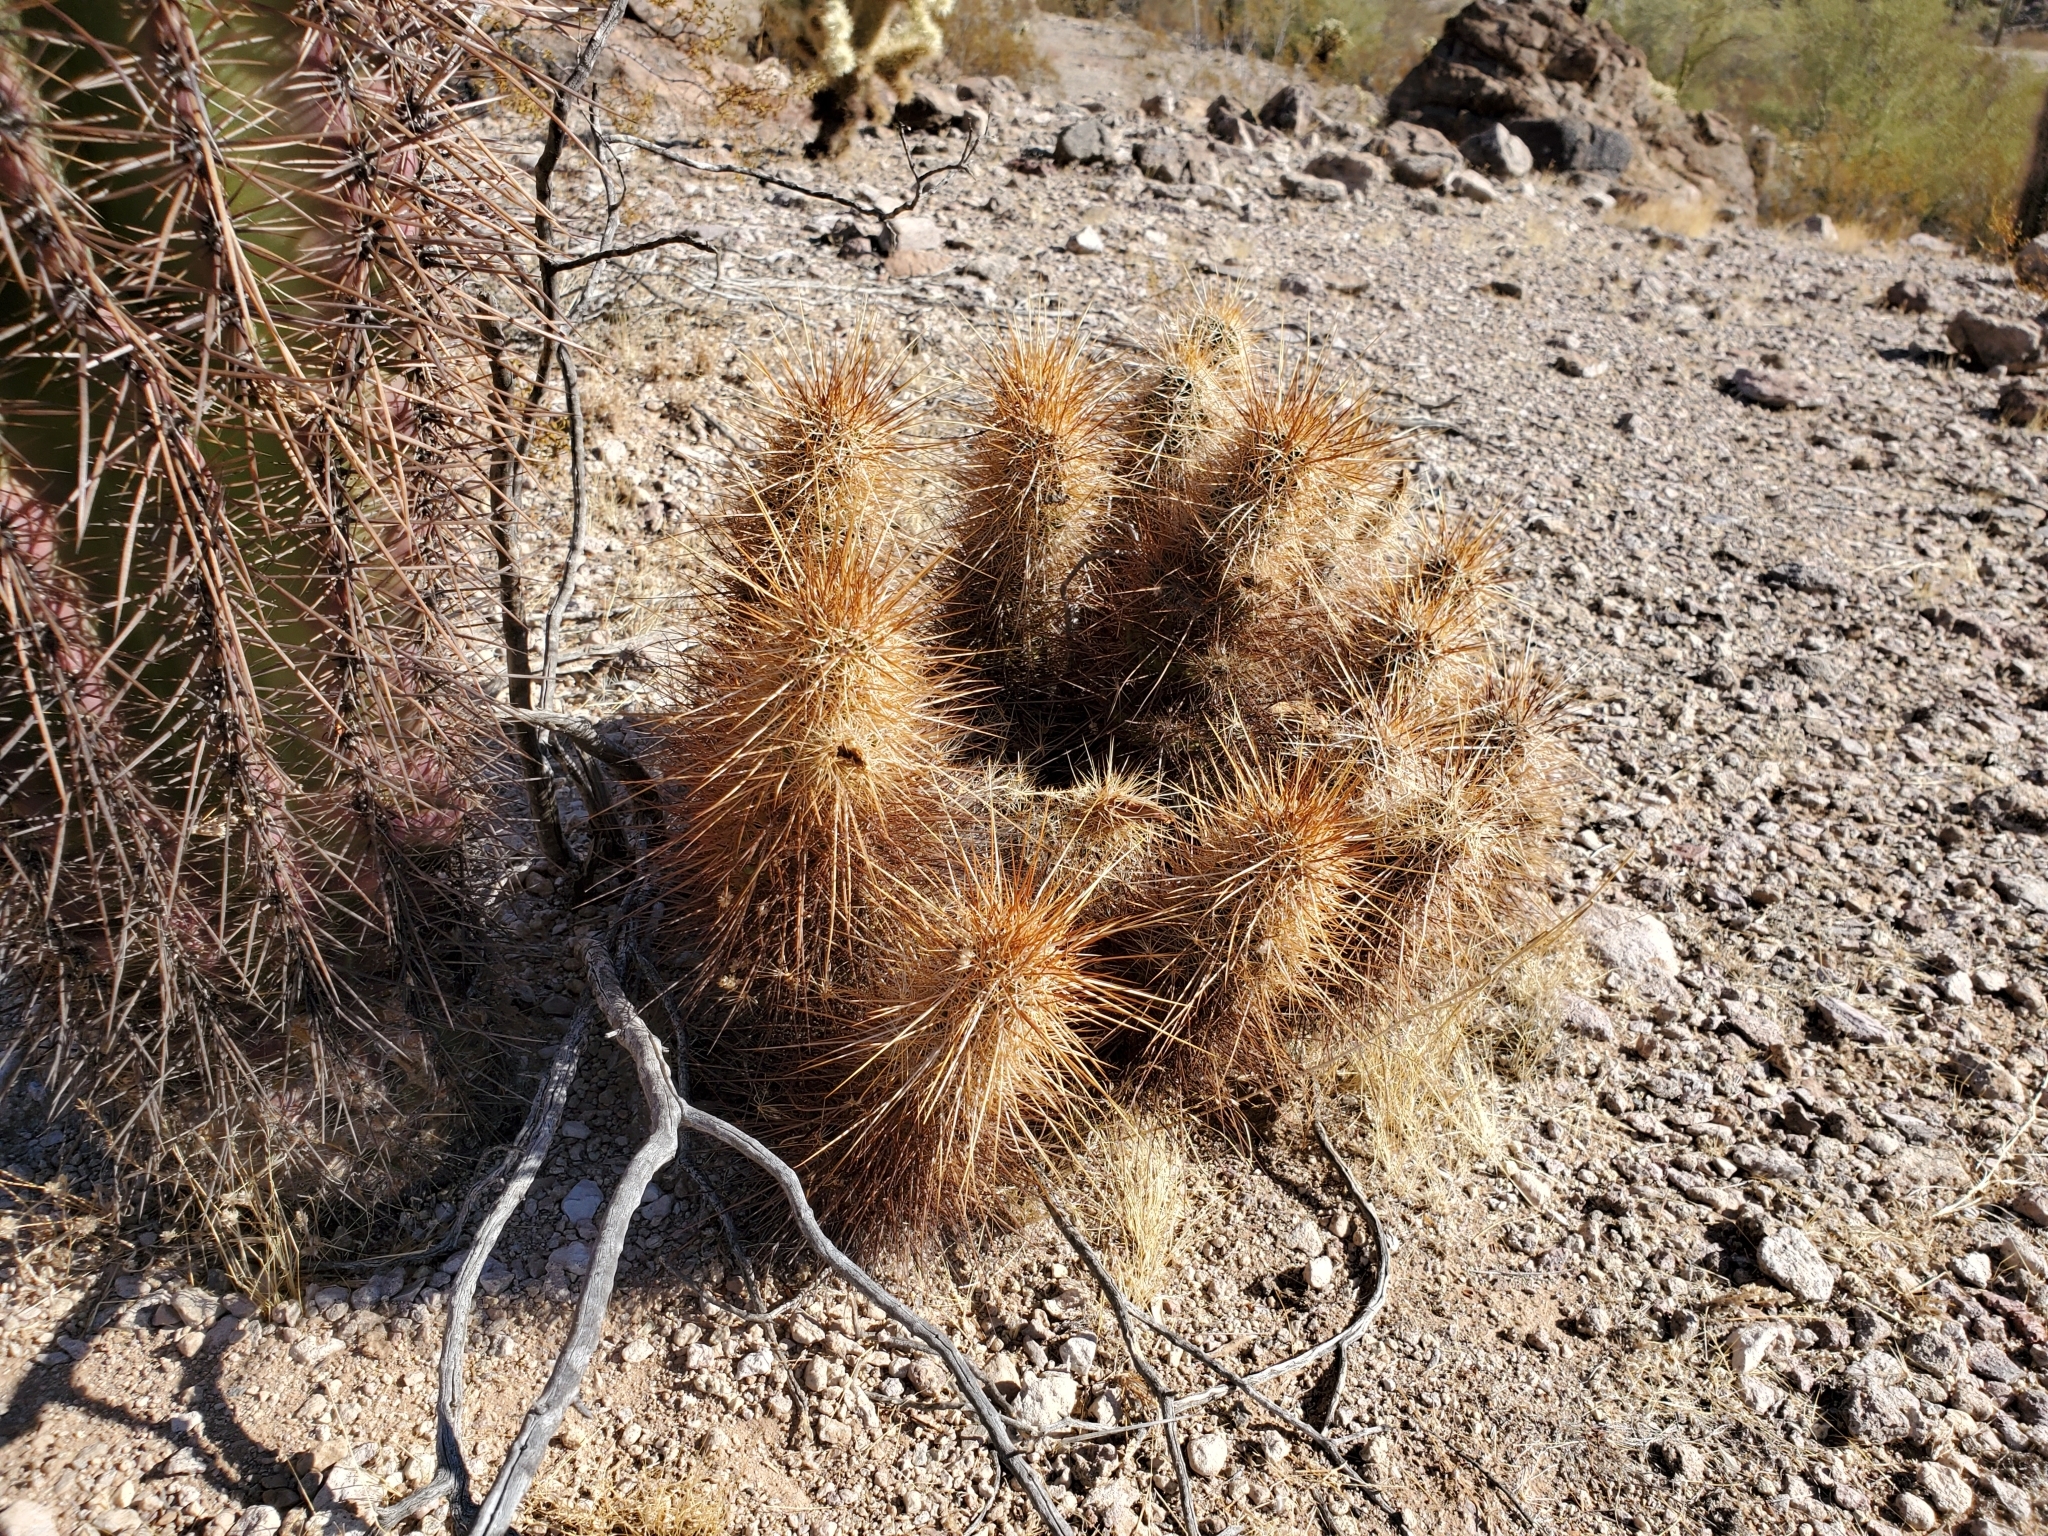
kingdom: Plantae
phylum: Tracheophyta
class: Magnoliopsida
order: Caryophyllales
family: Cactaceae
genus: Echinocereus
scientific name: Echinocereus engelmannii
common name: Engelmann's hedgehog cactus
